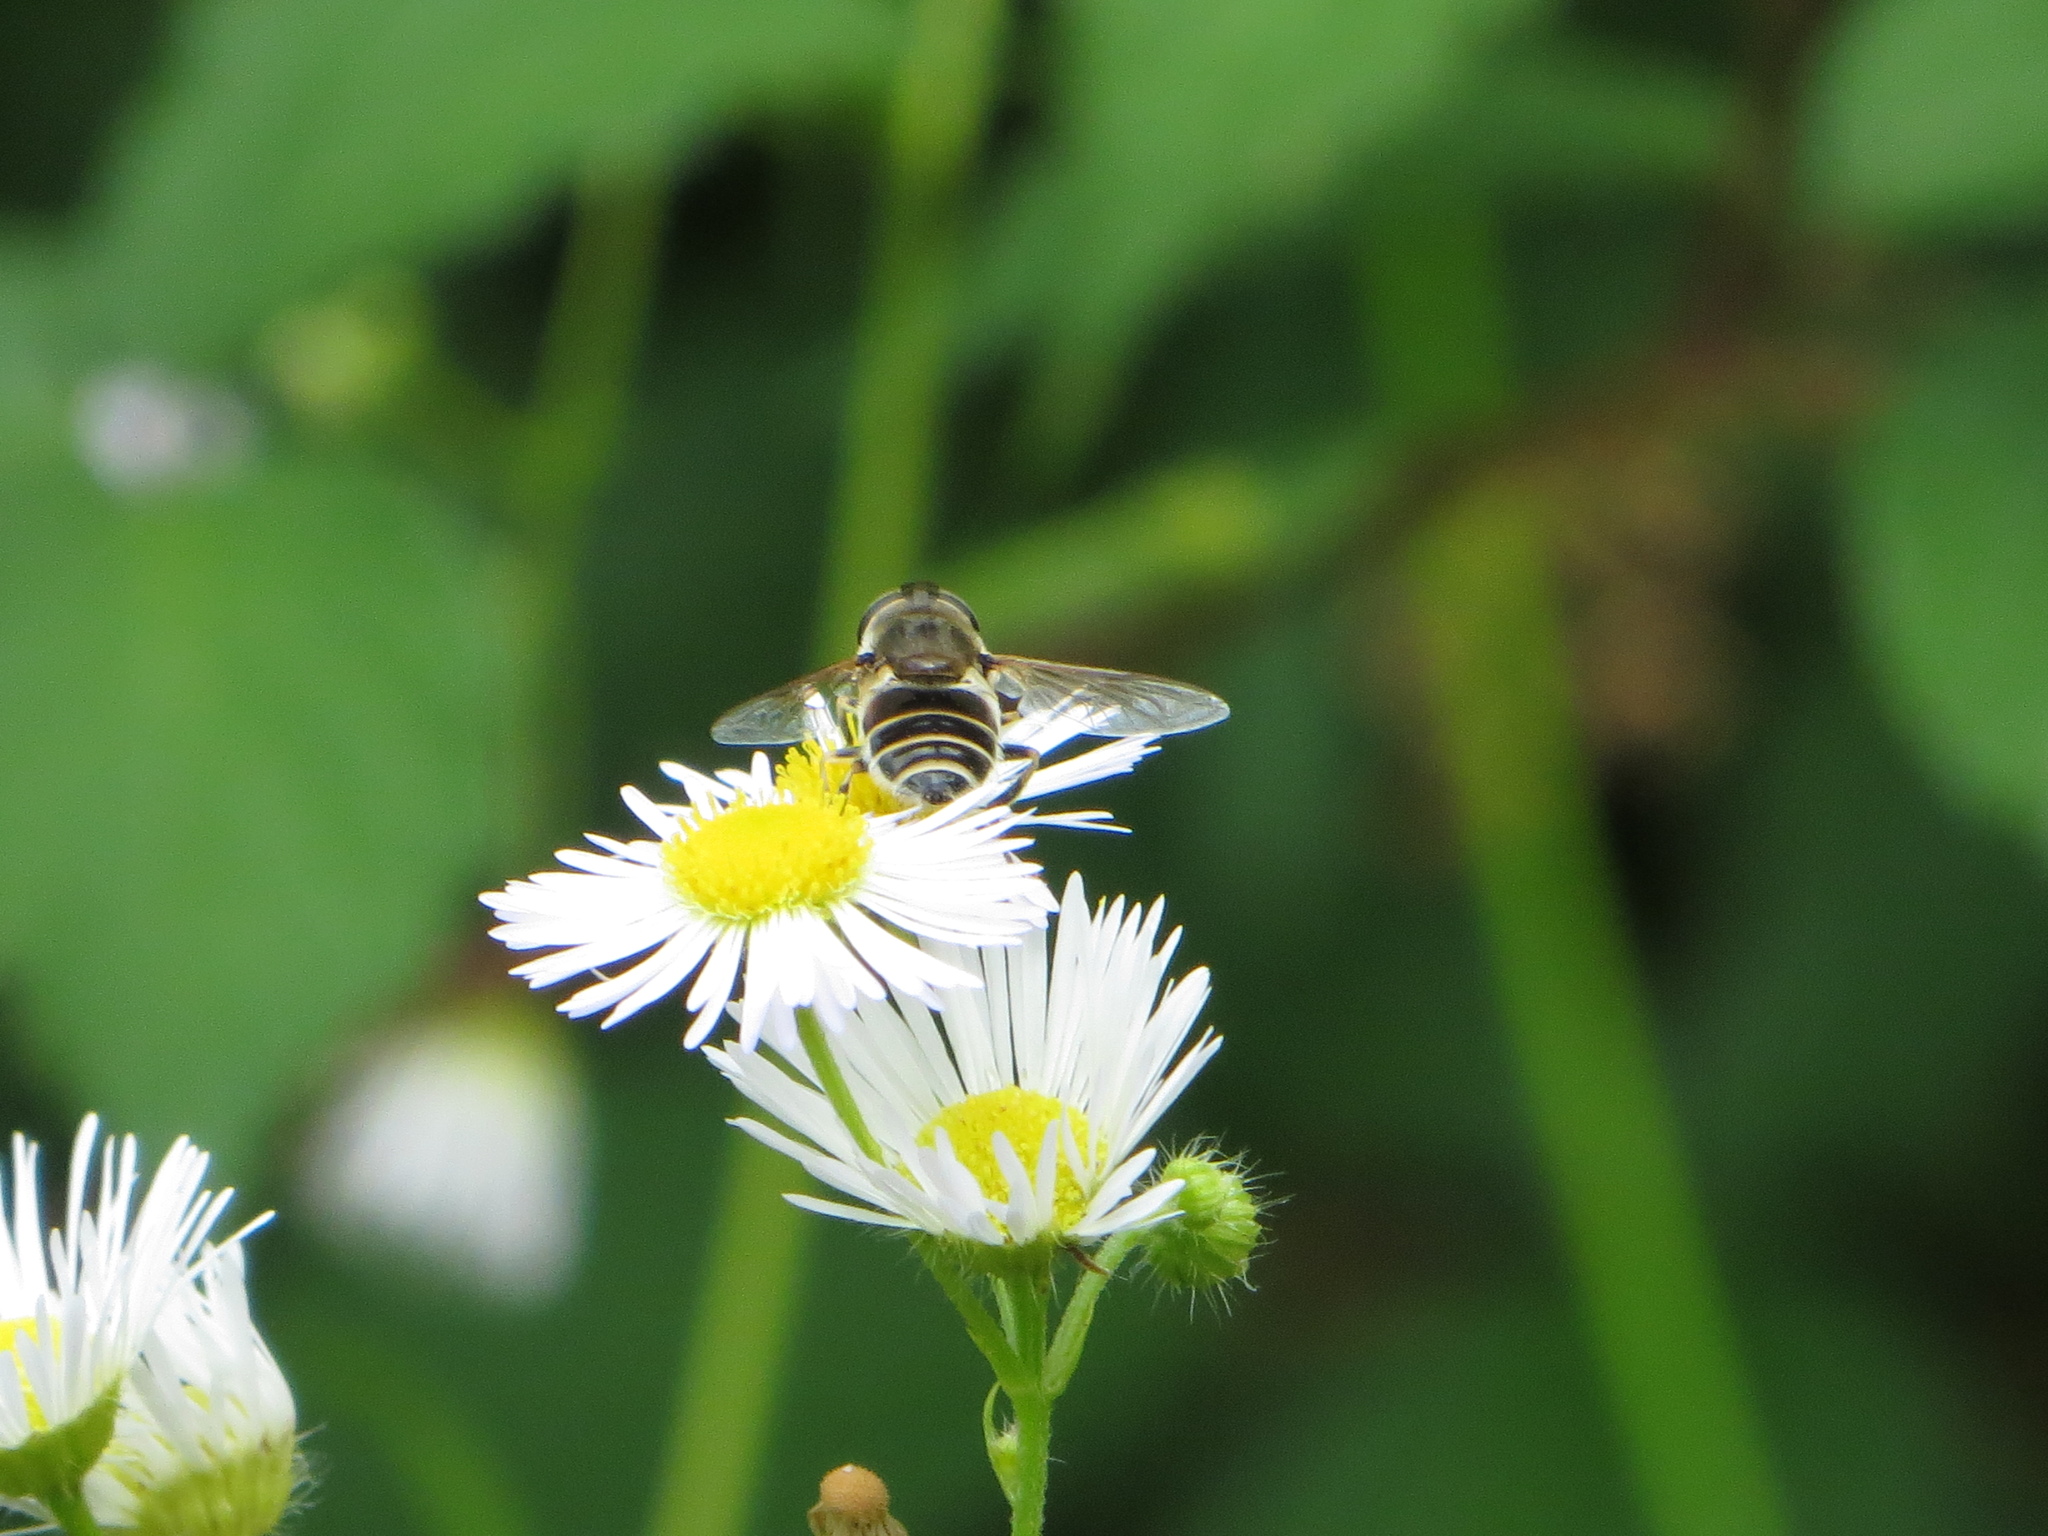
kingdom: Animalia
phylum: Arthropoda
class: Insecta
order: Diptera
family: Syrphidae
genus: Eristalis
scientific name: Eristalis arbustorum
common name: Hover fly
